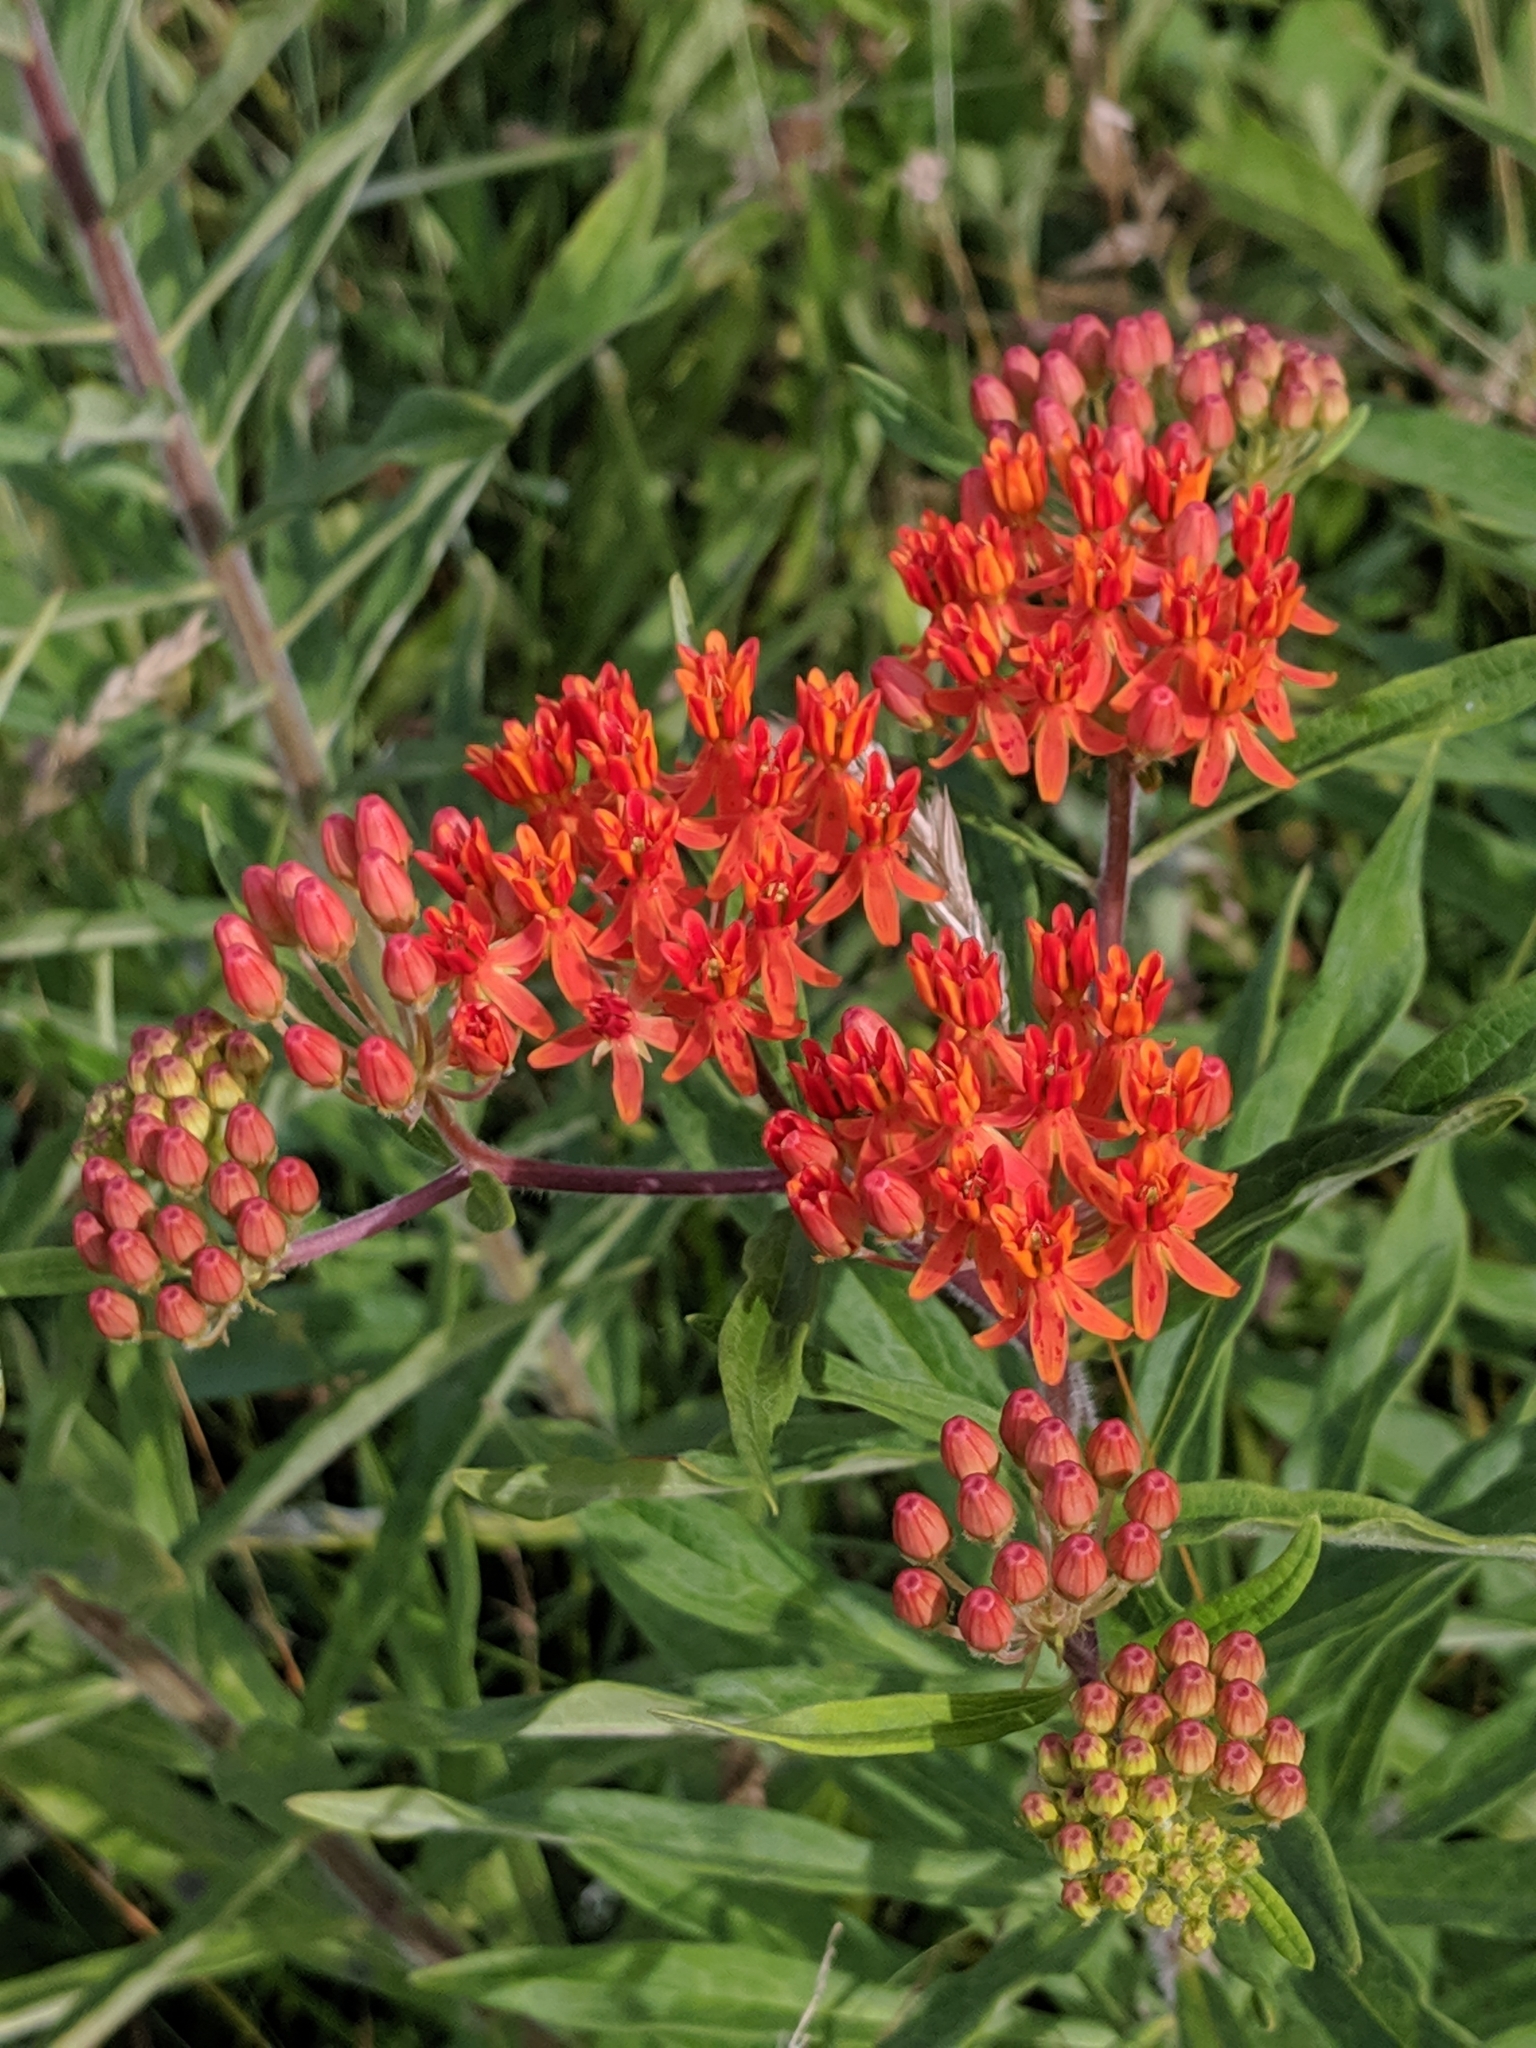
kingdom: Plantae
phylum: Tracheophyta
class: Magnoliopsida
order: Gentianales
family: Apocynaceae
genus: Asclepias
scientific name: Asclepias tuberosa
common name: Butterfly milkweed
